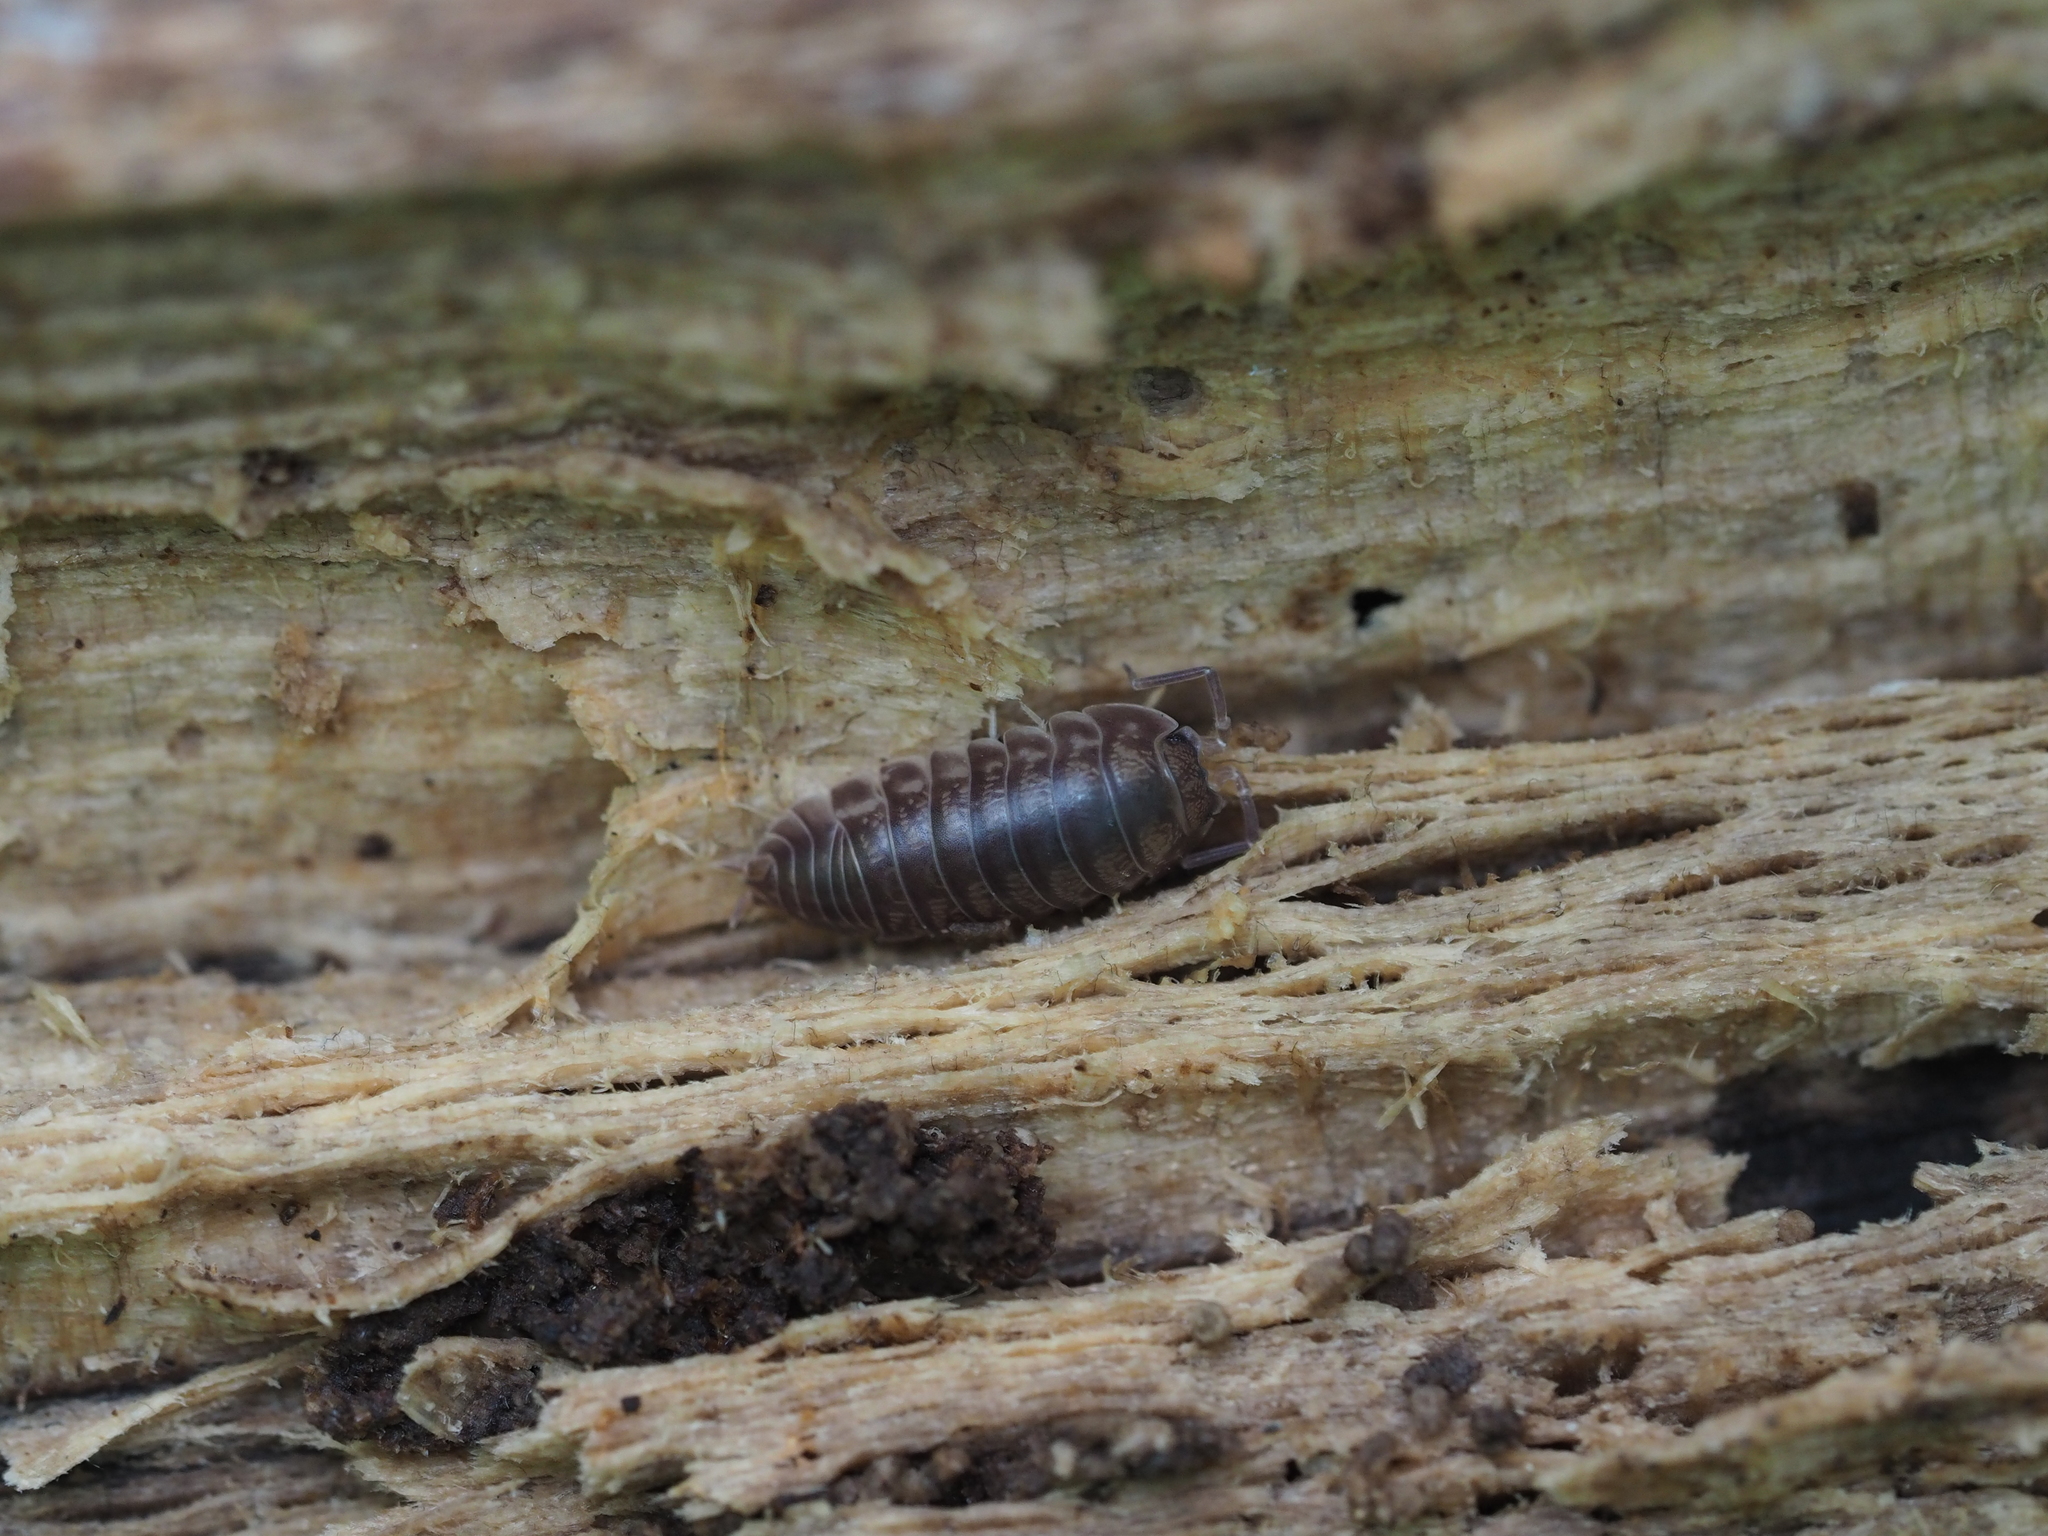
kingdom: Animalia
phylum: Arthropoda
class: Malacostraca
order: Isopoda
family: Cylisticidae
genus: Cylisticus
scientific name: Cylisticus convexus
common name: Curly woodlouse
